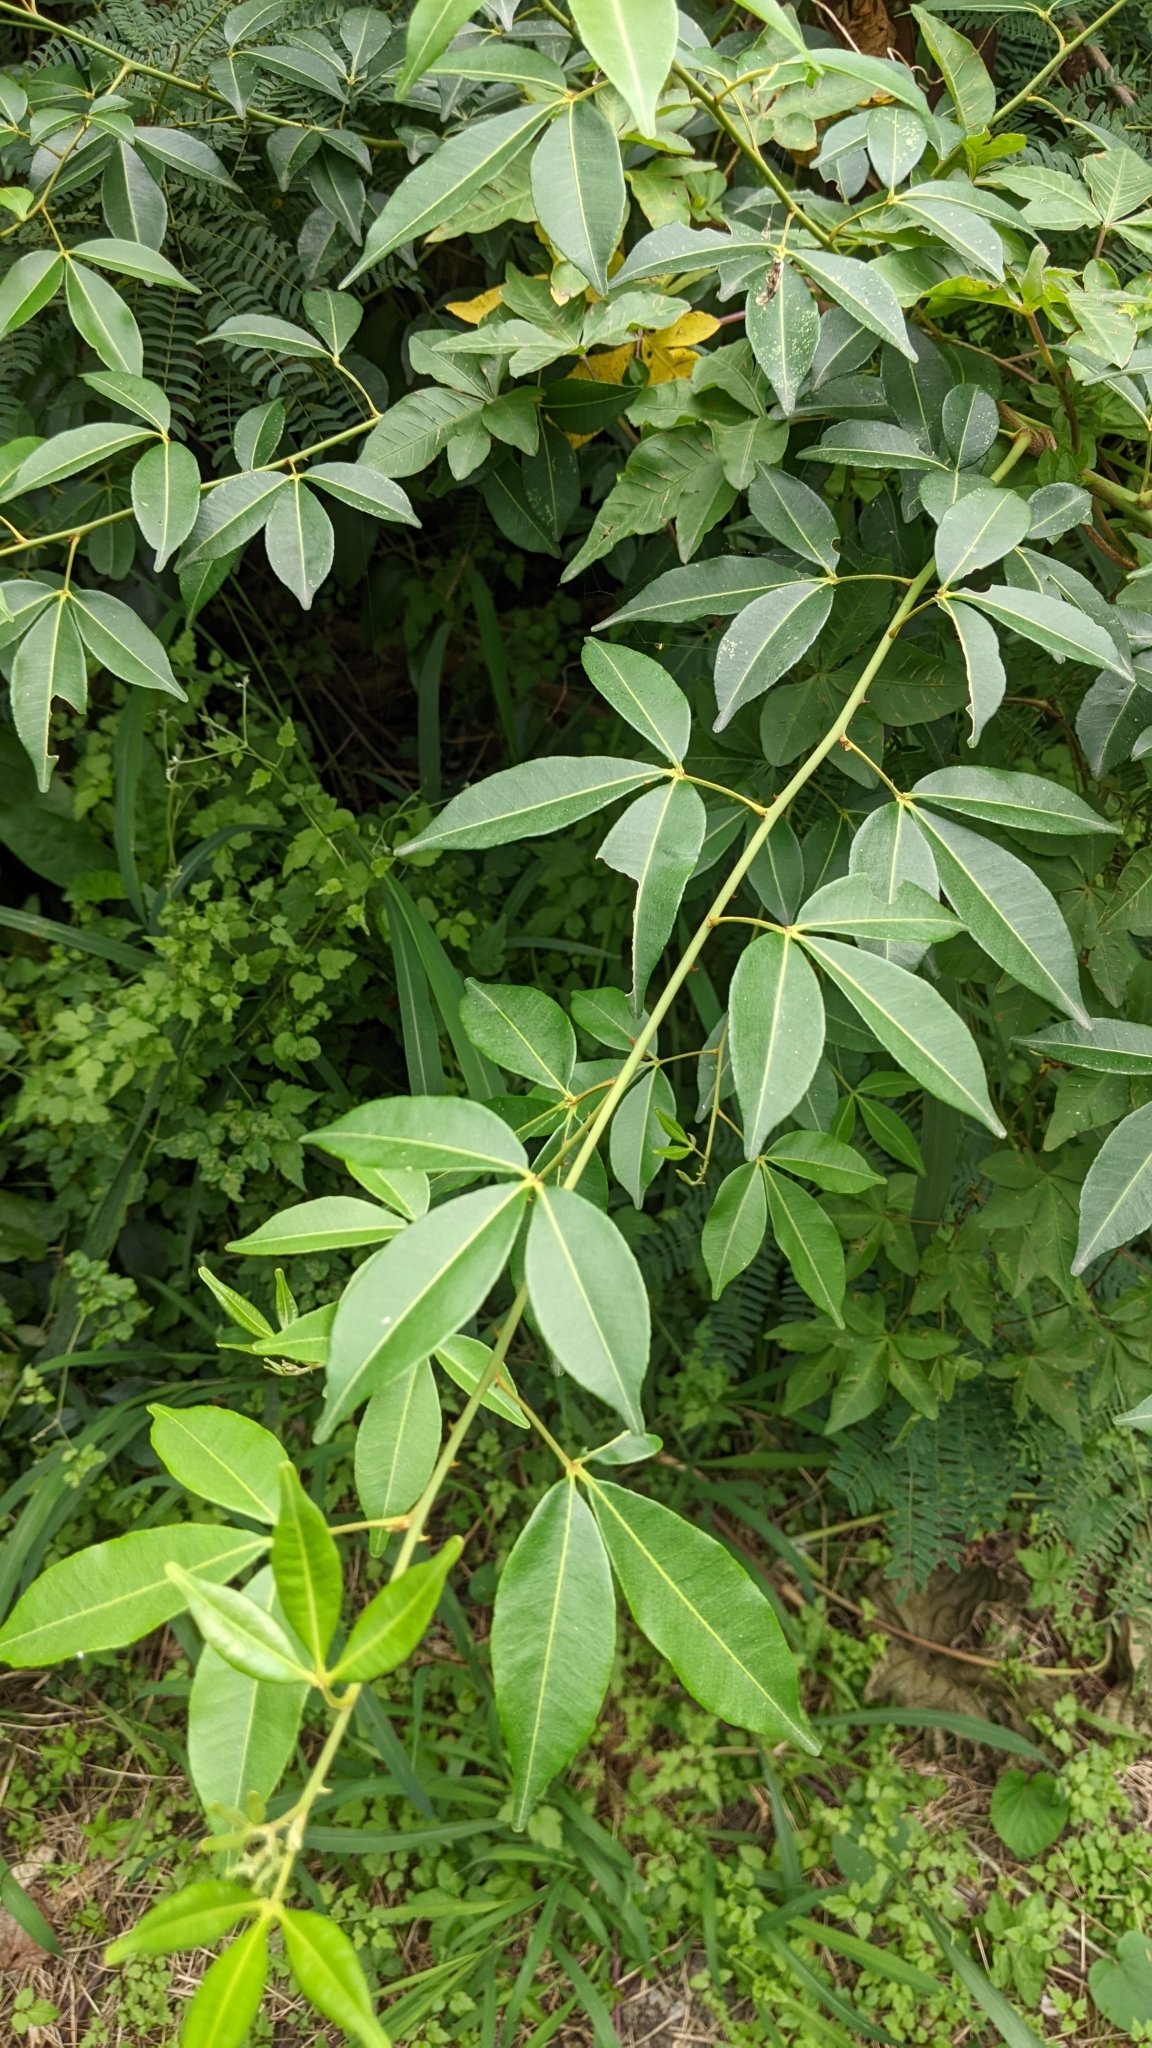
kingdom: Plantae
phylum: Tracheophyta
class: Magnoliopsida
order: Sapindales
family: Rutaceae
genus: Zanthoxylum
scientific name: Zanthoxylum asiaticum
